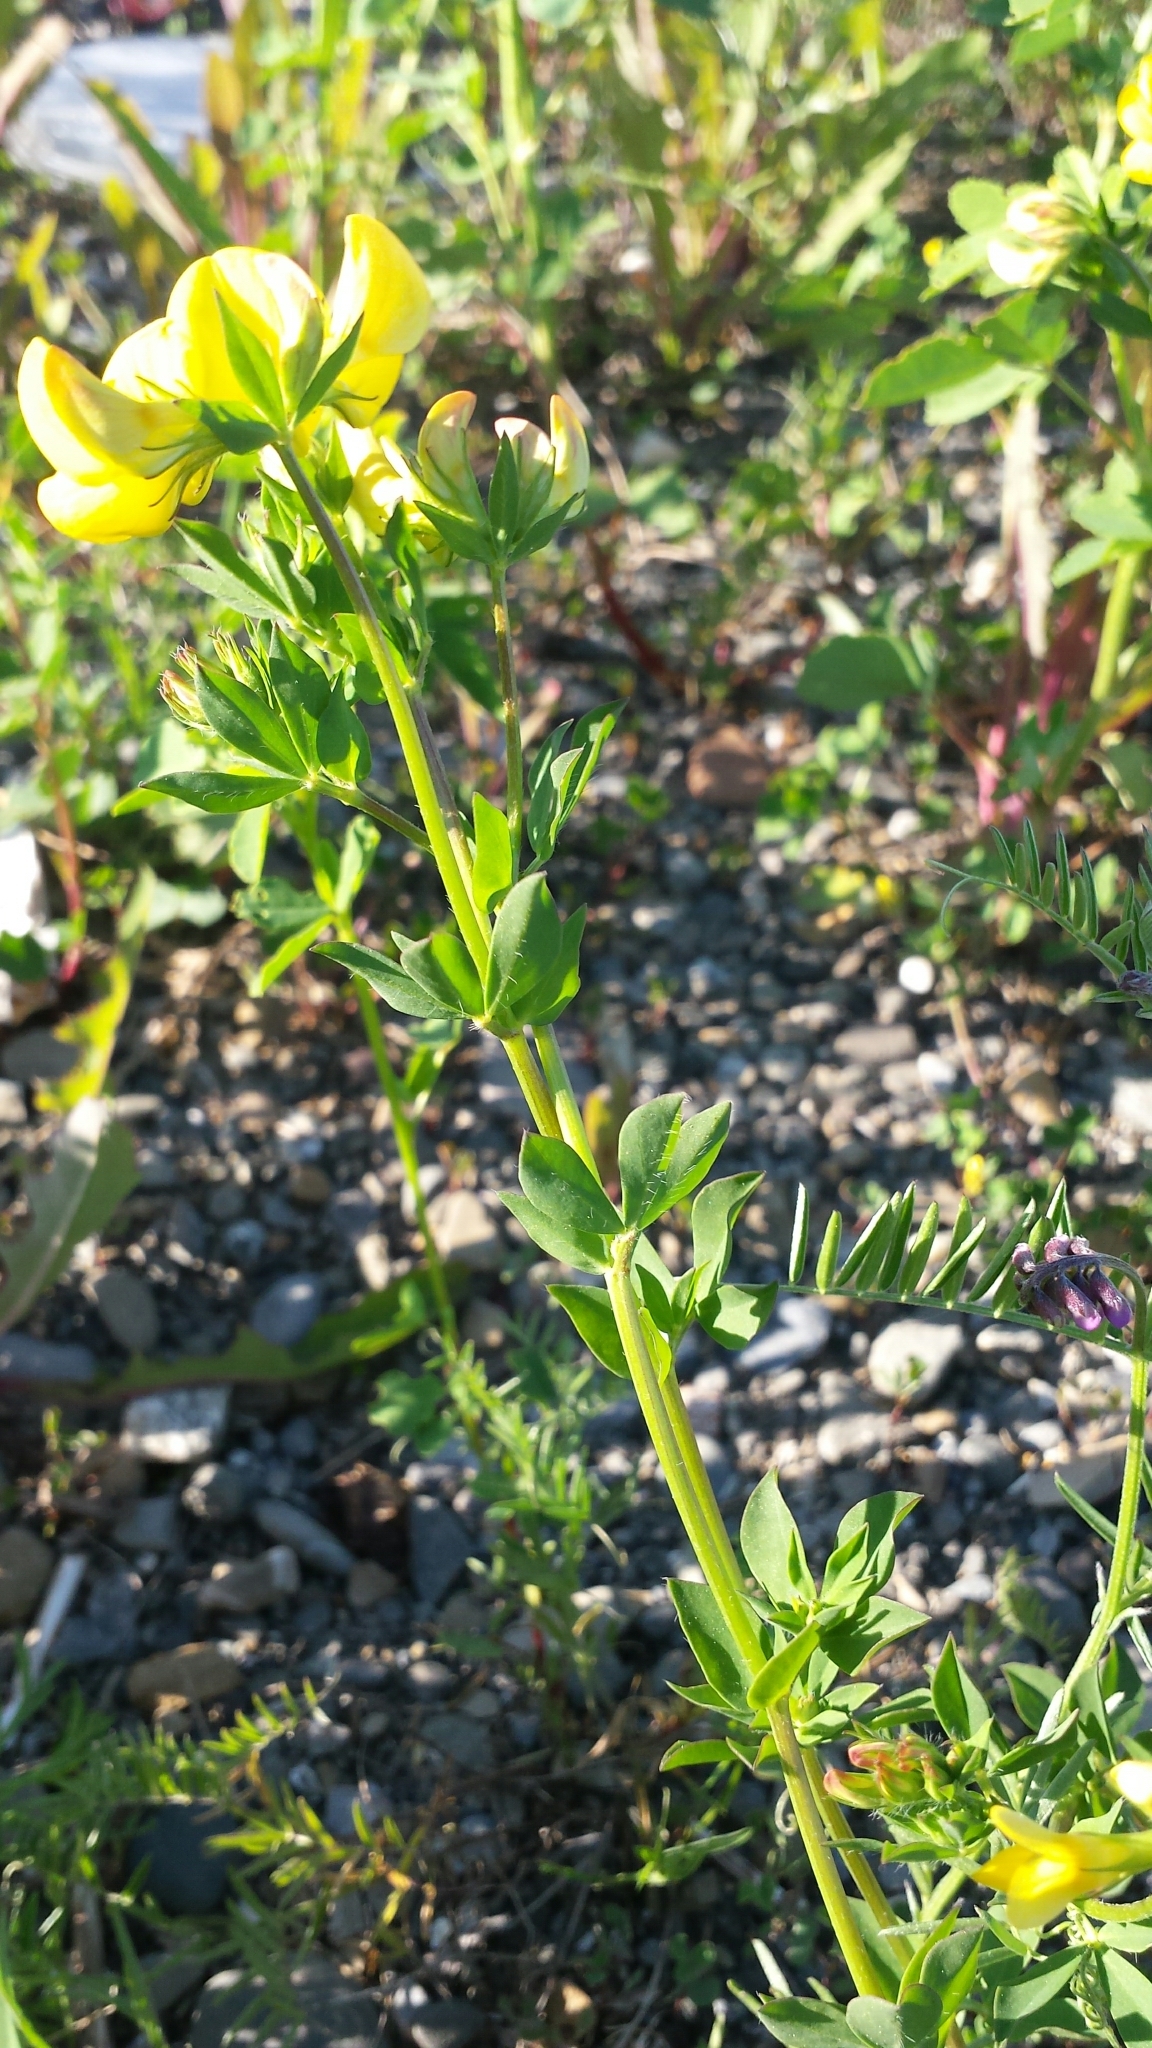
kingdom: Plantae
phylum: Tracheophyta
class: Magnoliopsida
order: Fabales
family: Fabaceae
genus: Lotus
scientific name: Lotus corniculatus
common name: Common bird's-foot-trefoil
